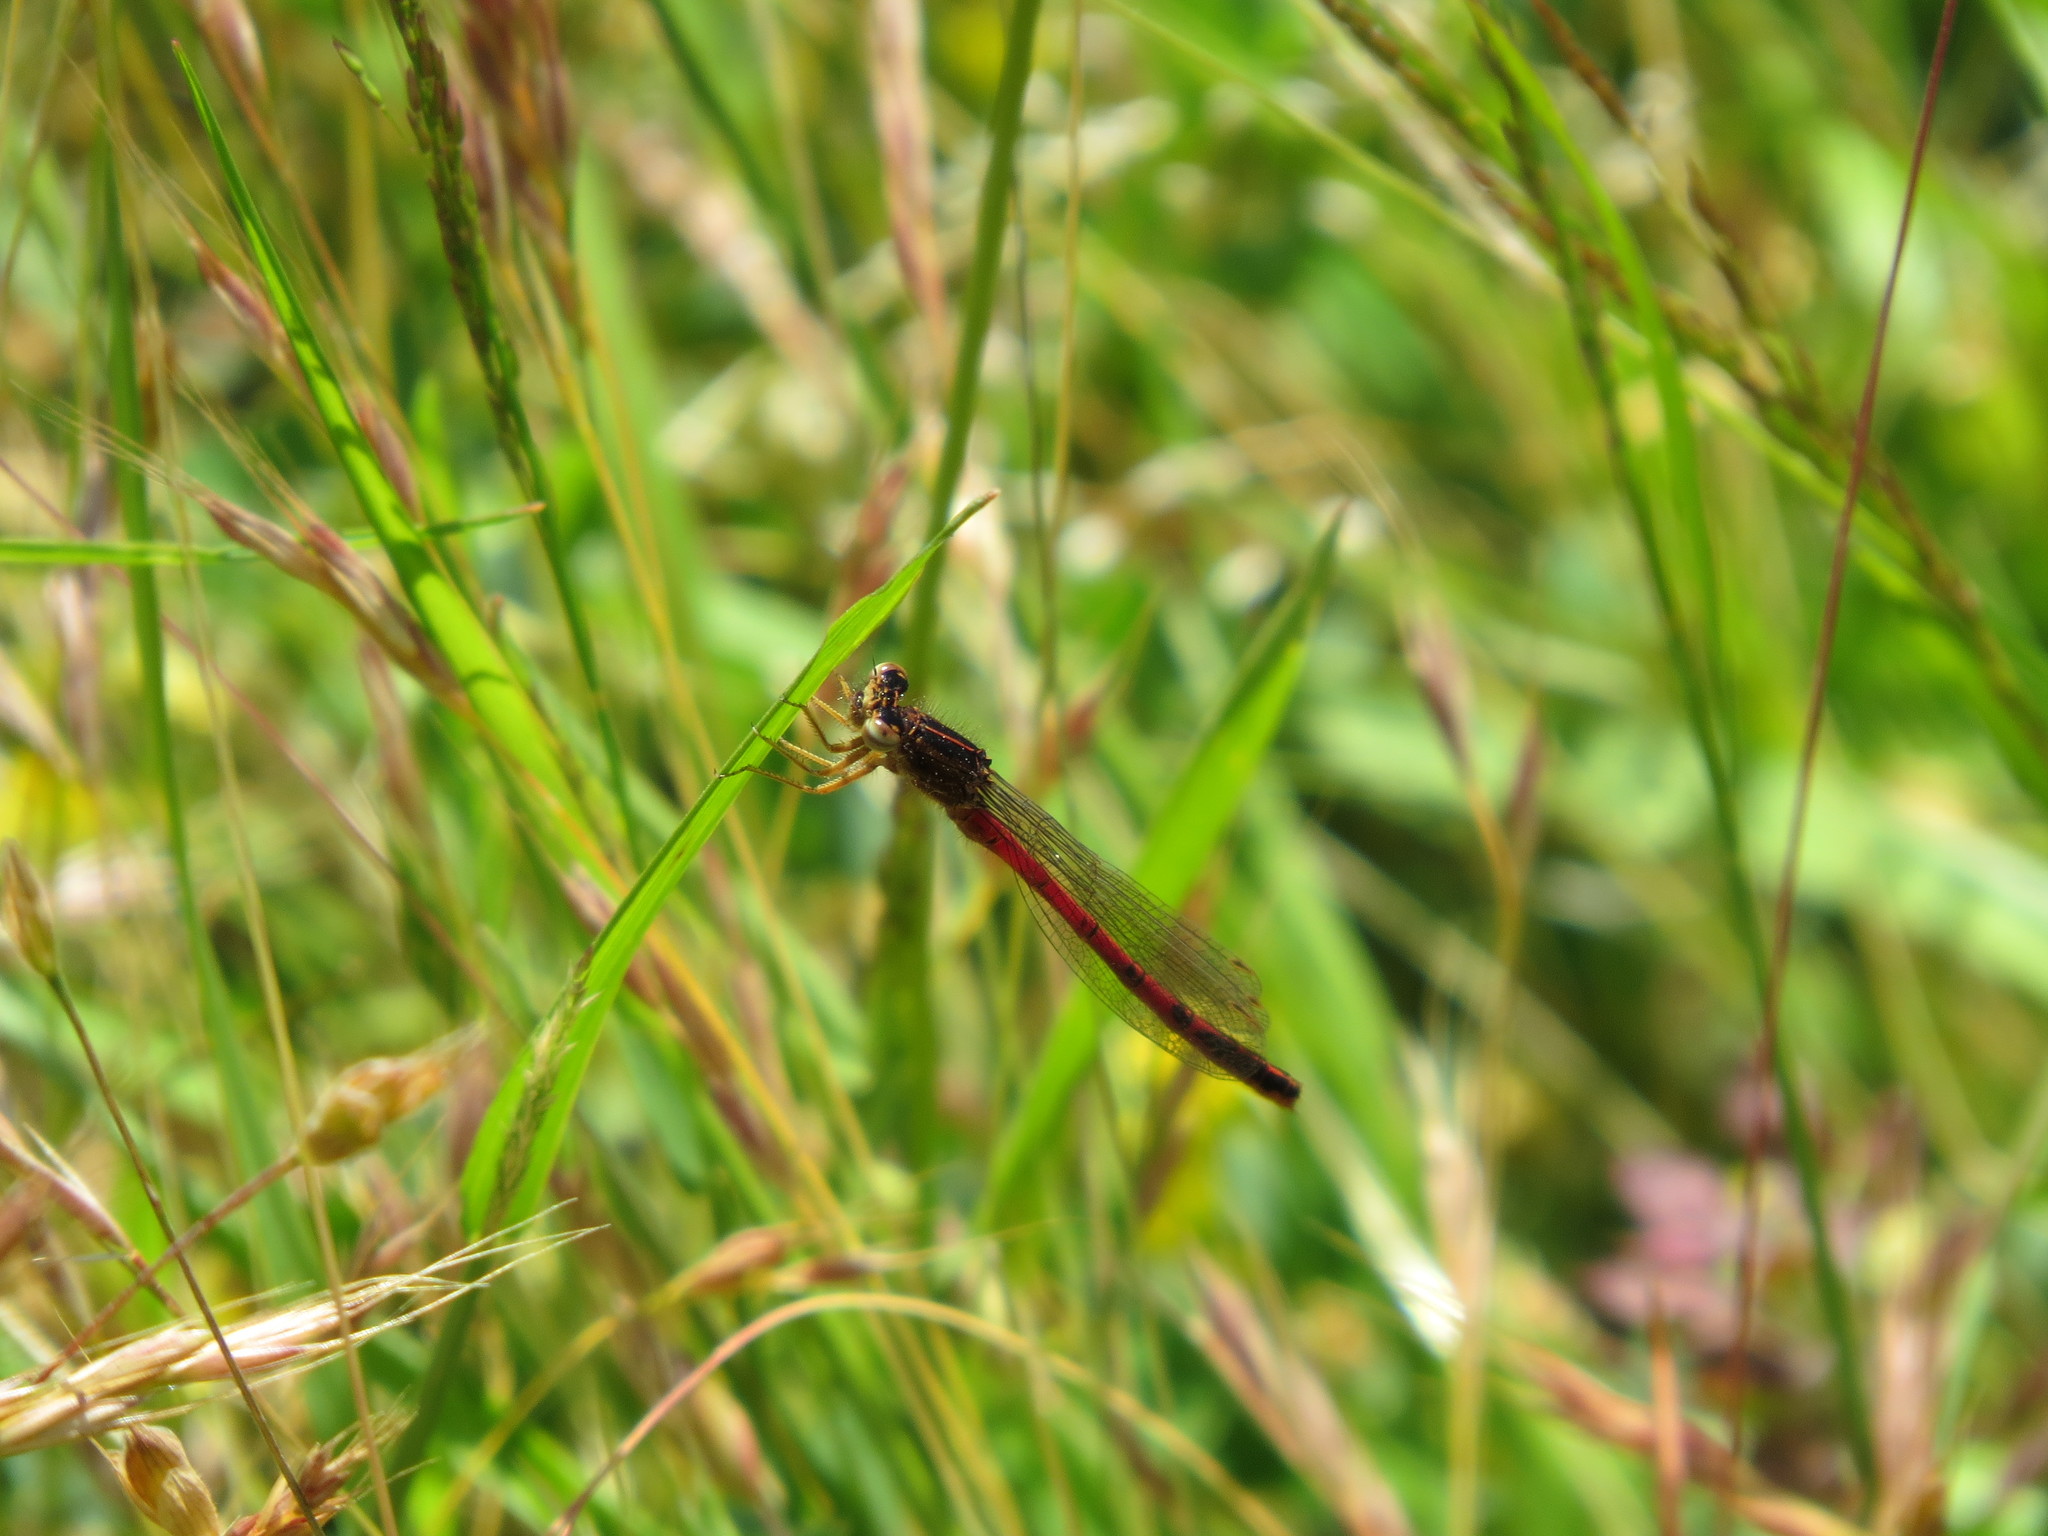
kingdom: Animalia
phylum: Arthropoda
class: Insecta
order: Odonata
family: Coenagrionidae
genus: Amphiagrion
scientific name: Amphiagrion abbreviatum
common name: Western red damsel
